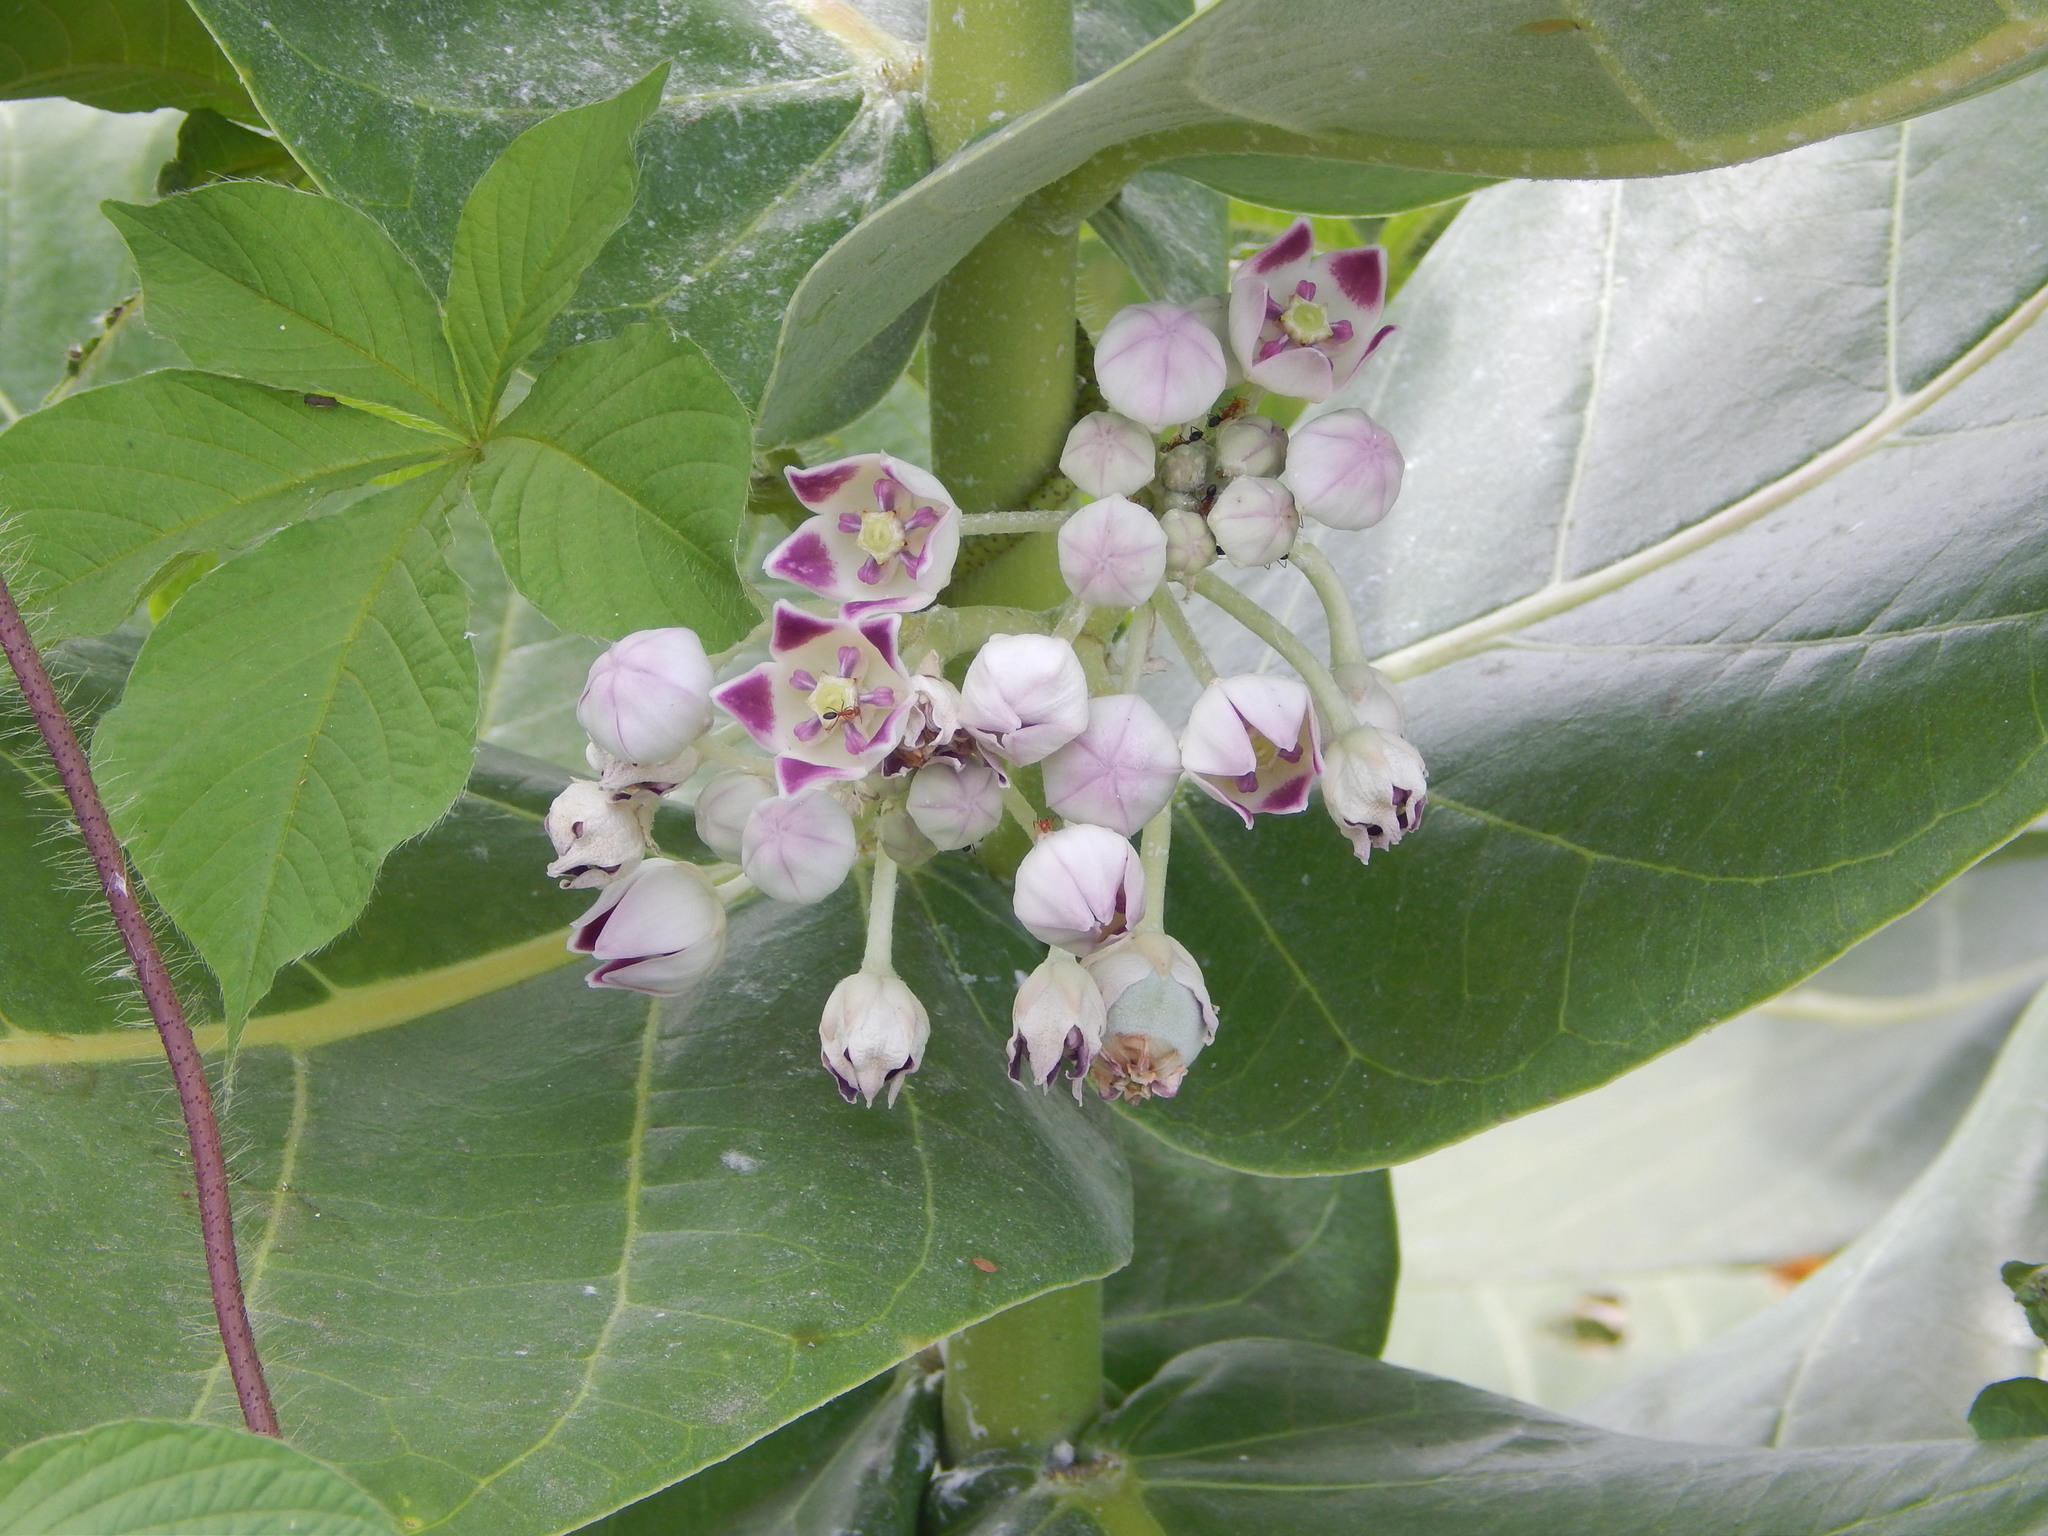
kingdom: Plantae
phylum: Tracheophyta
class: Magnoliopsida
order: Gentianales
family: Apocynaceae
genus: Calotropis
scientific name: Calotropis procera
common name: Roostertree
